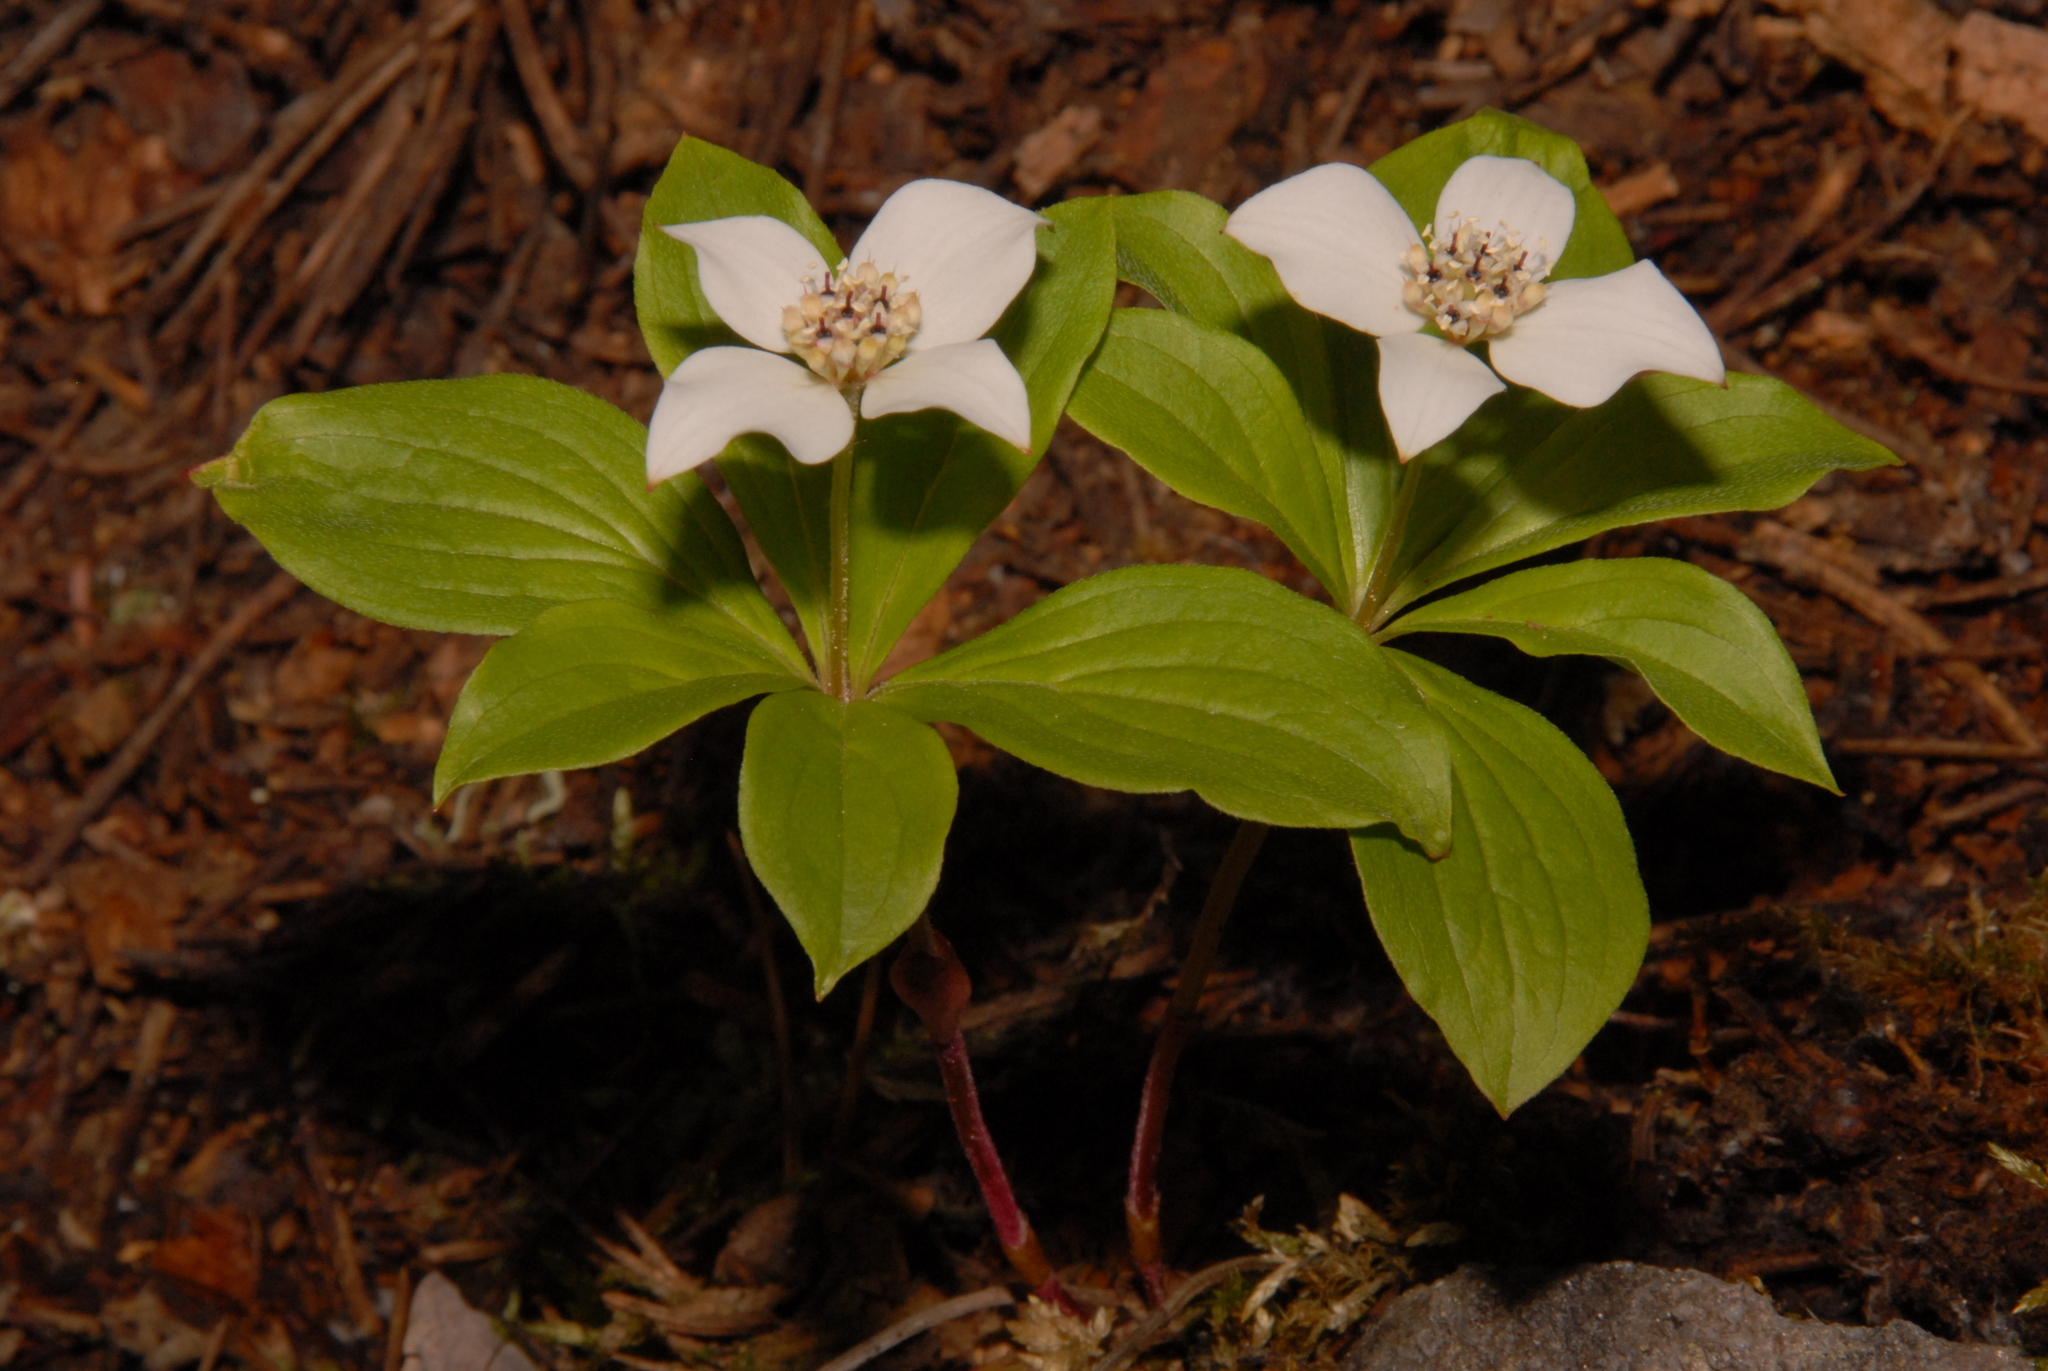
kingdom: Plantae
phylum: Tracheophyta
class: Magnoliopsida
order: Cornales
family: Cornaceae
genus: Cornus
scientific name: Cornus canadensis
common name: Creeping dogwood
